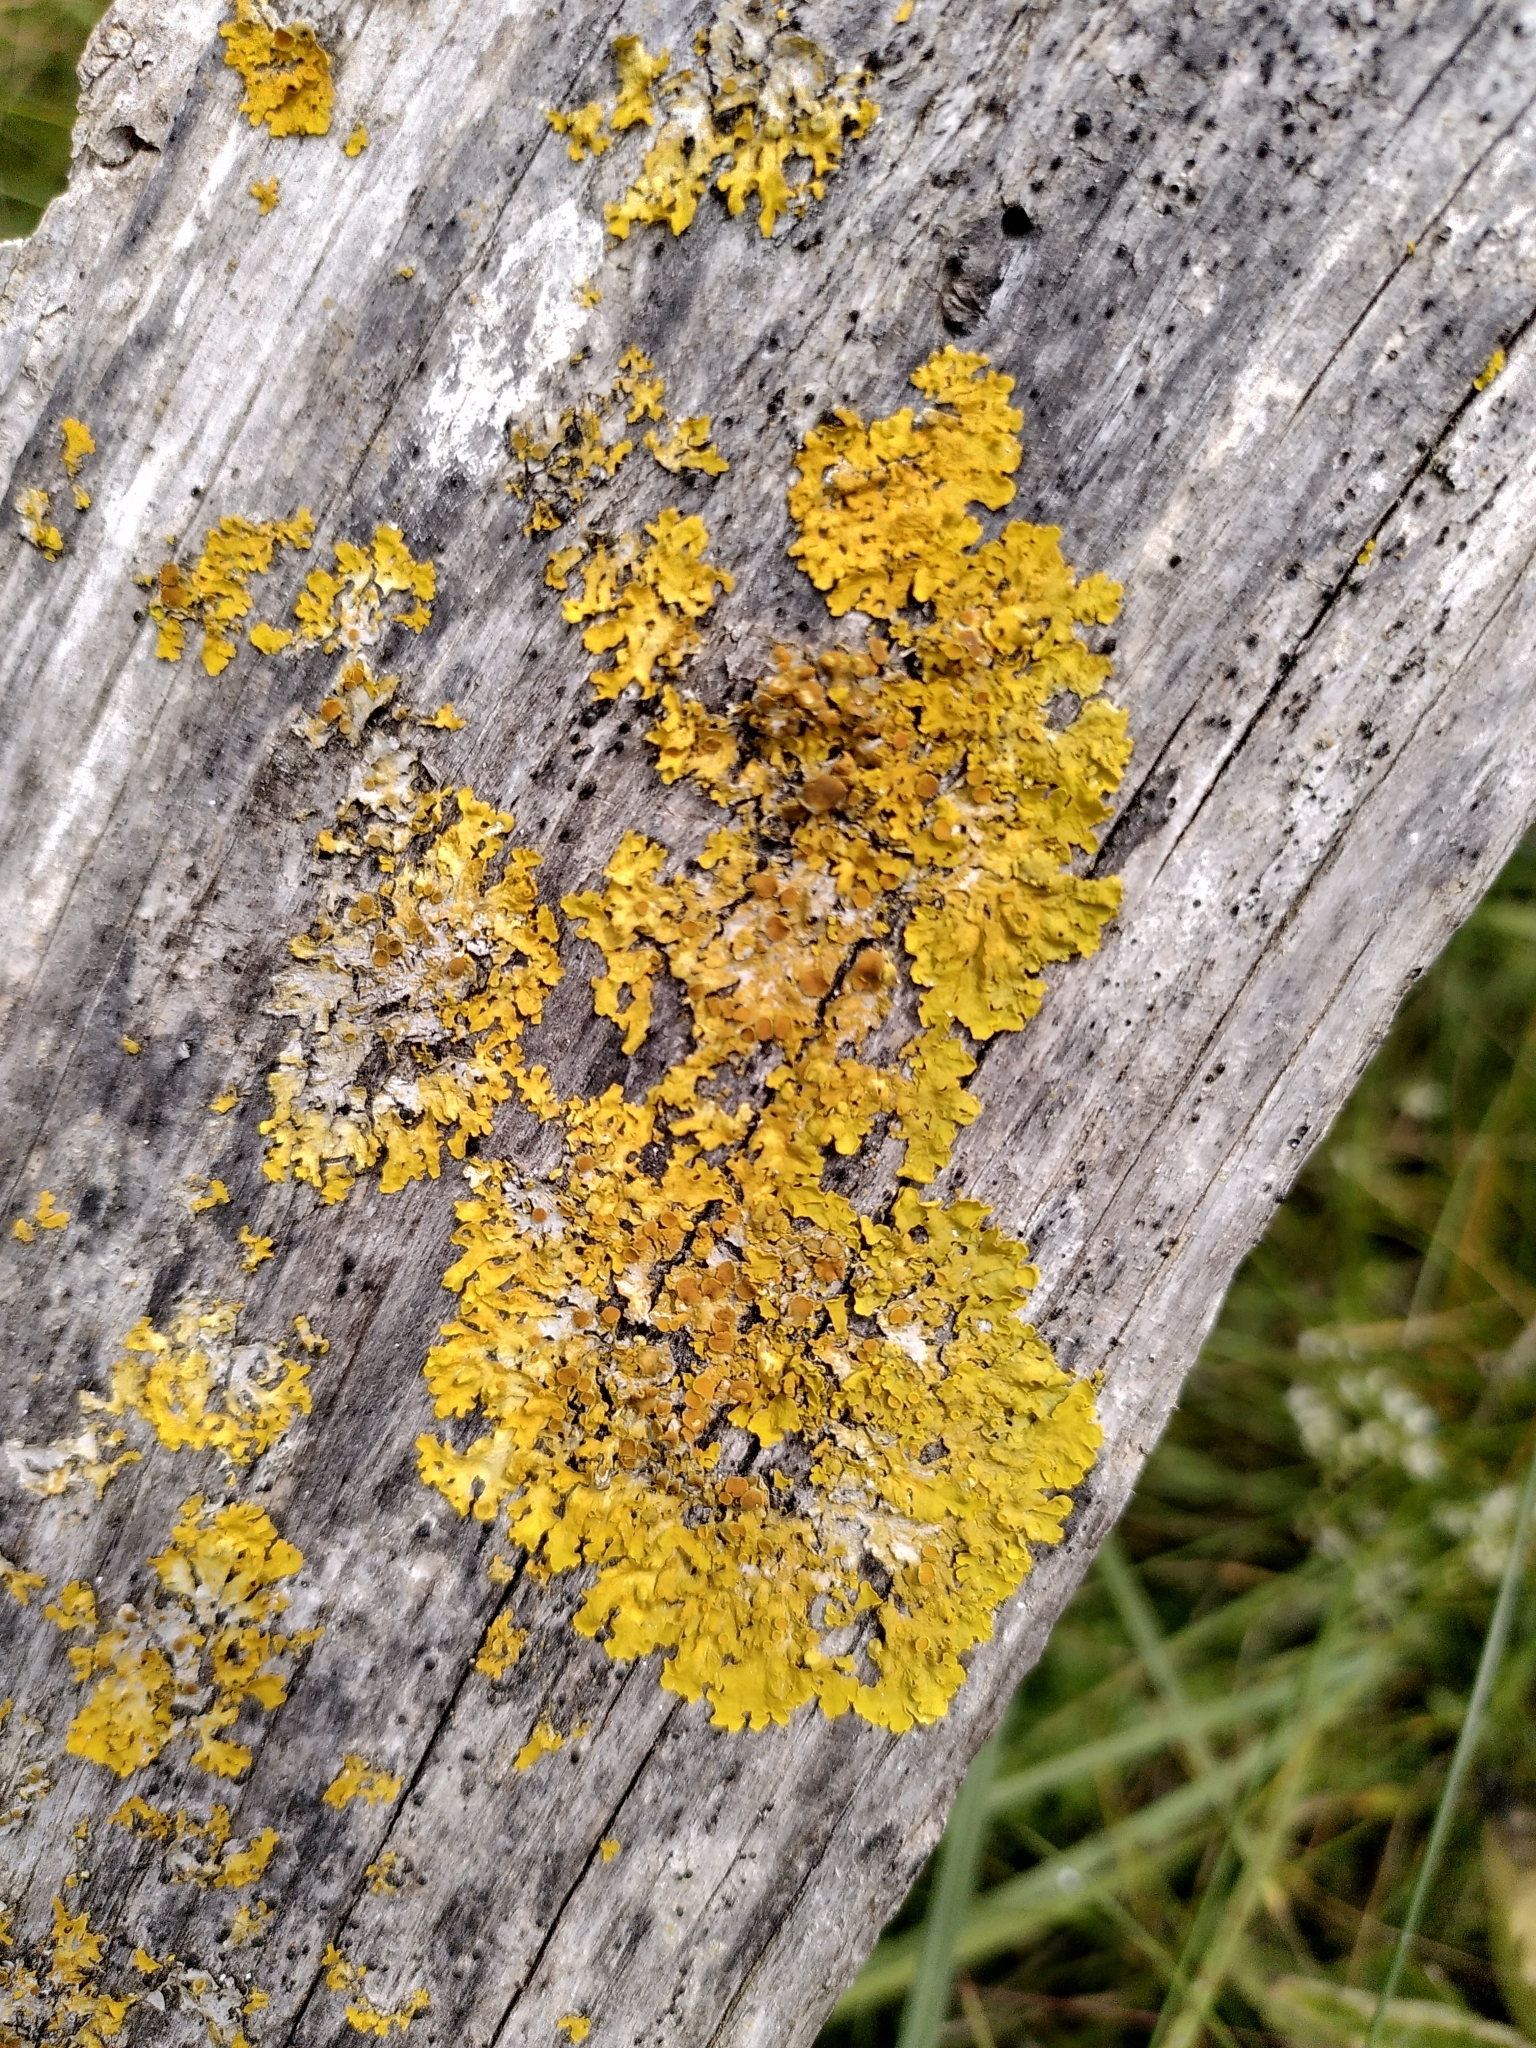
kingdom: Fungi
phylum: Ascomycota
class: Lecanoromycetes
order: Teloschistales
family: Teloschistaceae
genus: Xanthoria
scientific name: Xanthoria parietina
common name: Common orange lichen
